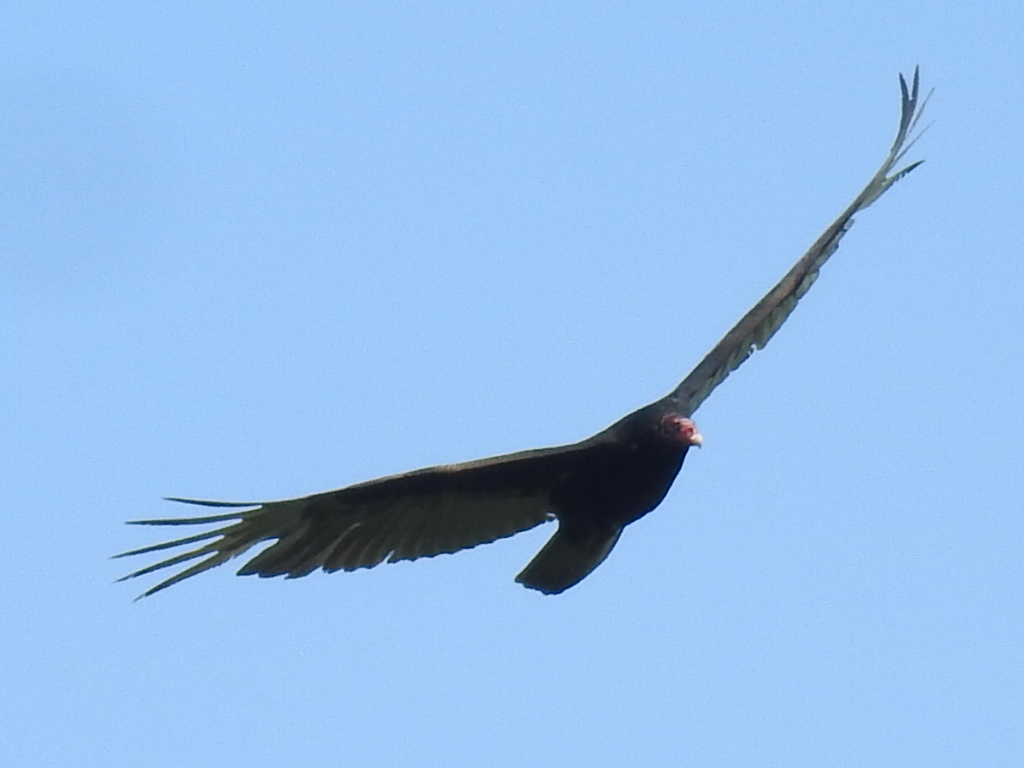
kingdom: Animalia
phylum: Chordata
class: Aves
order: Accipitriformes
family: Cathartidae
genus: Cathartes
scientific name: Cathartes aura
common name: Turkey vulture
